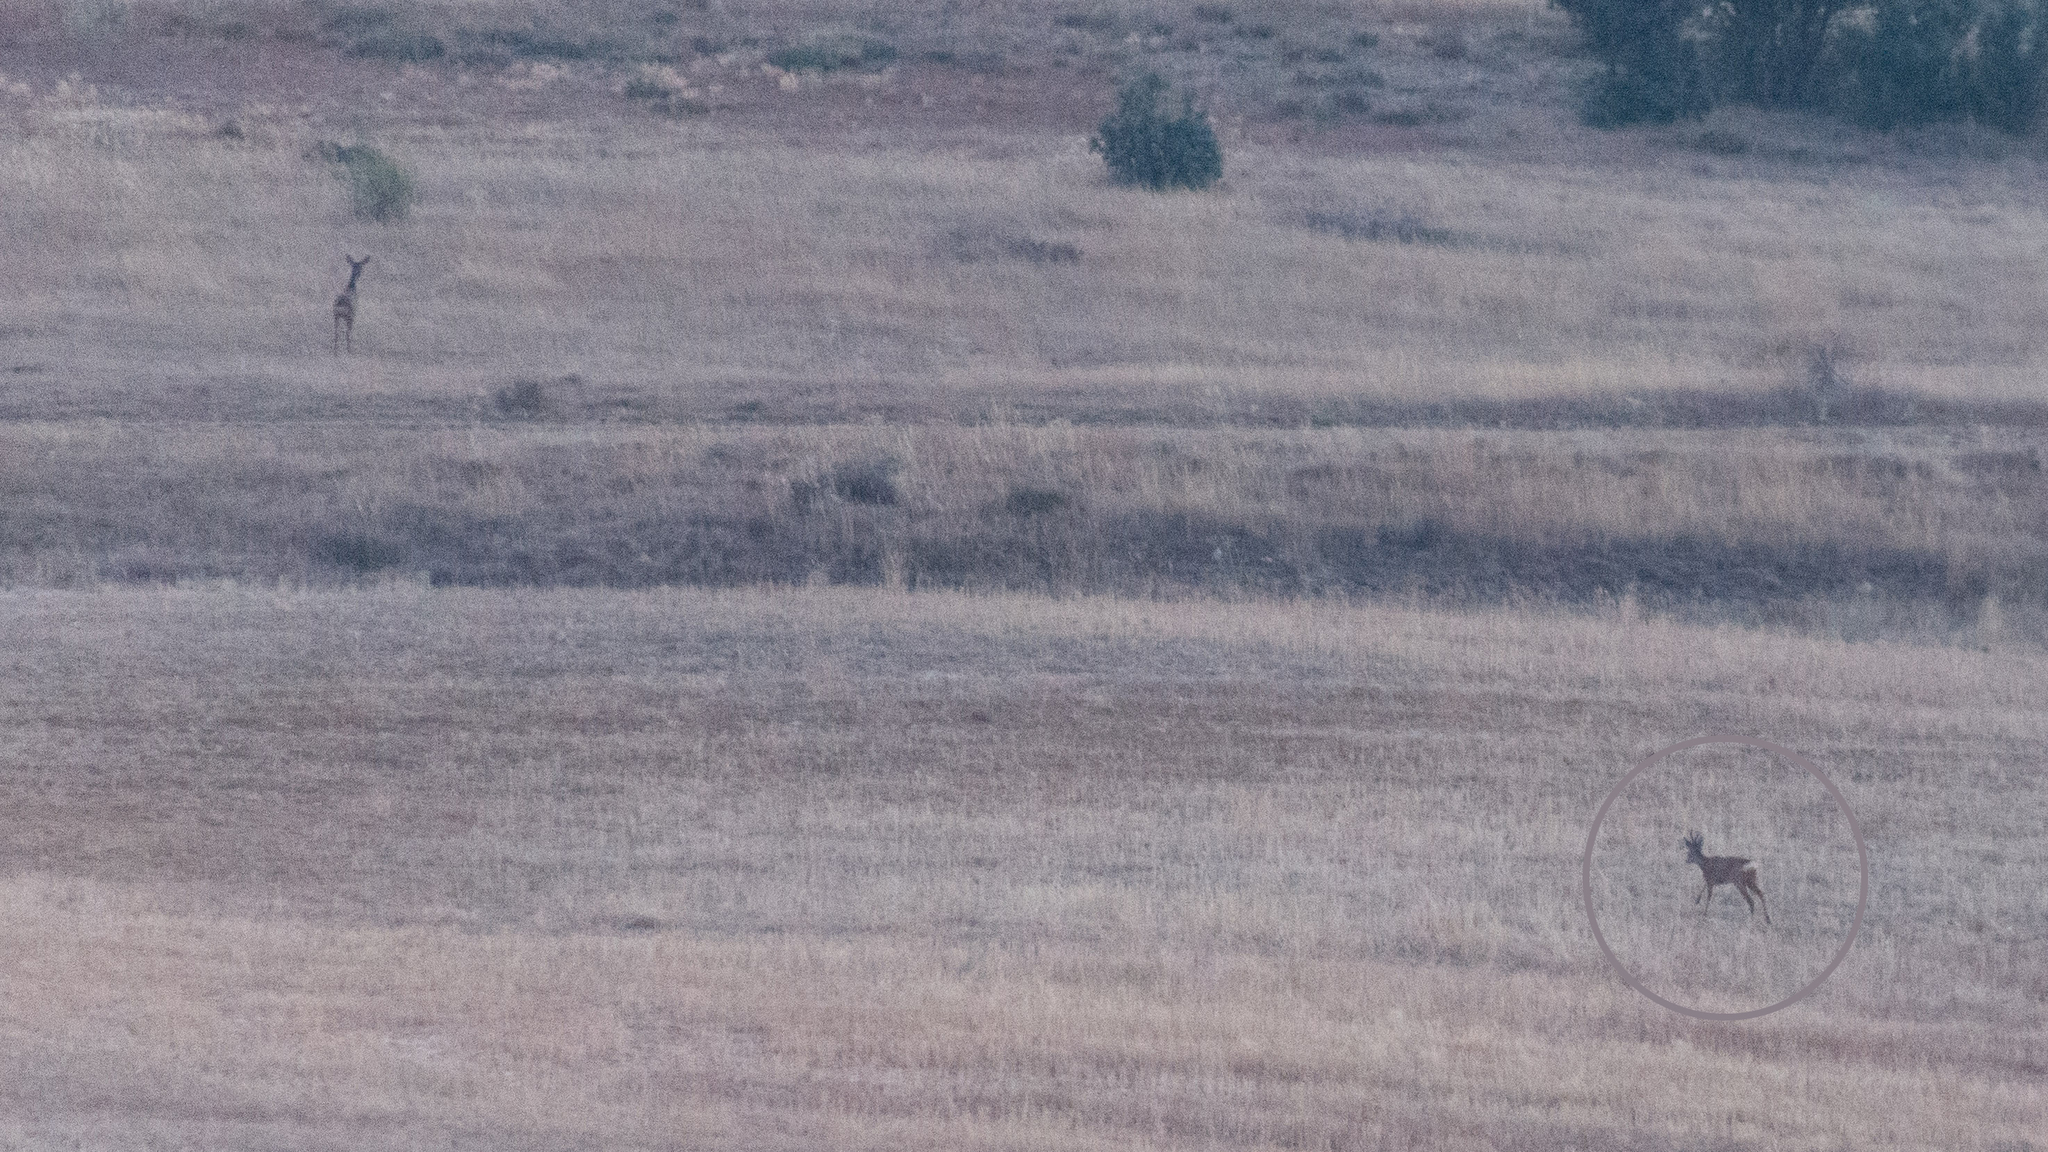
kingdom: Animalia
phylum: Chordata
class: Mammalia
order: Artiodactyla
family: Cervidae
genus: Capreolus
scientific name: Capreolus capreolus
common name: Western roe deer
